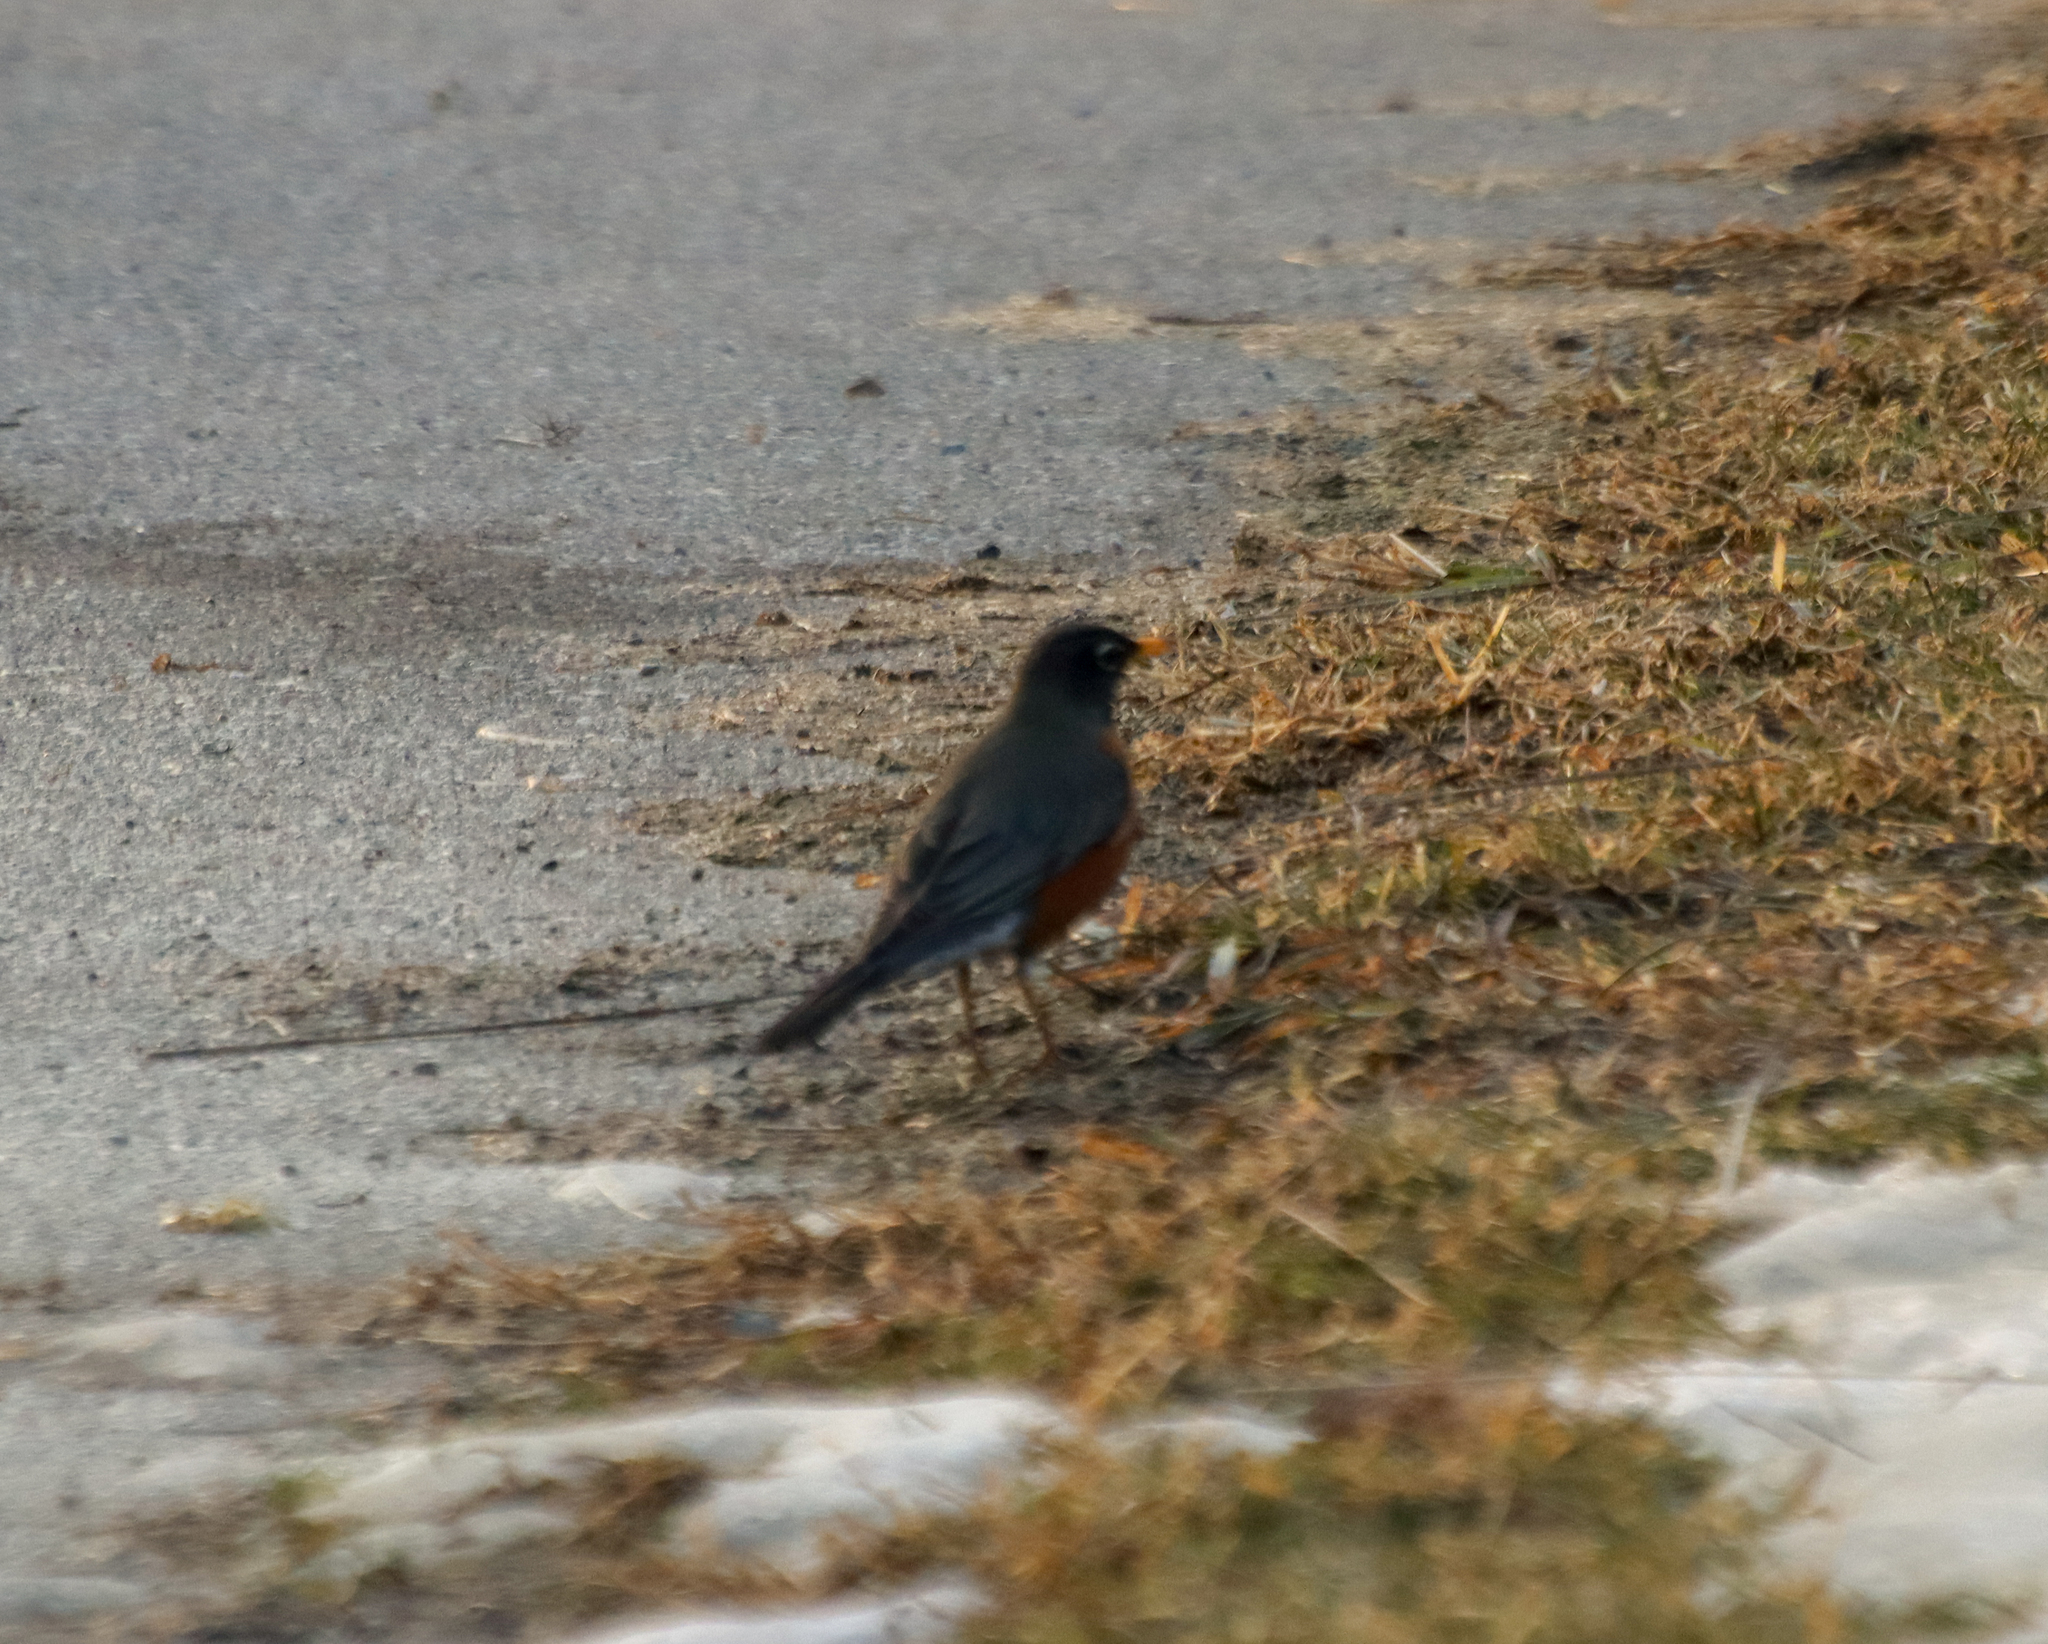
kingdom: Animalia
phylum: Chordata
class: Aves
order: Passeriformes
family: Turdidae
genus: Turdus
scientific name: Turdus migratorius
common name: American robin
